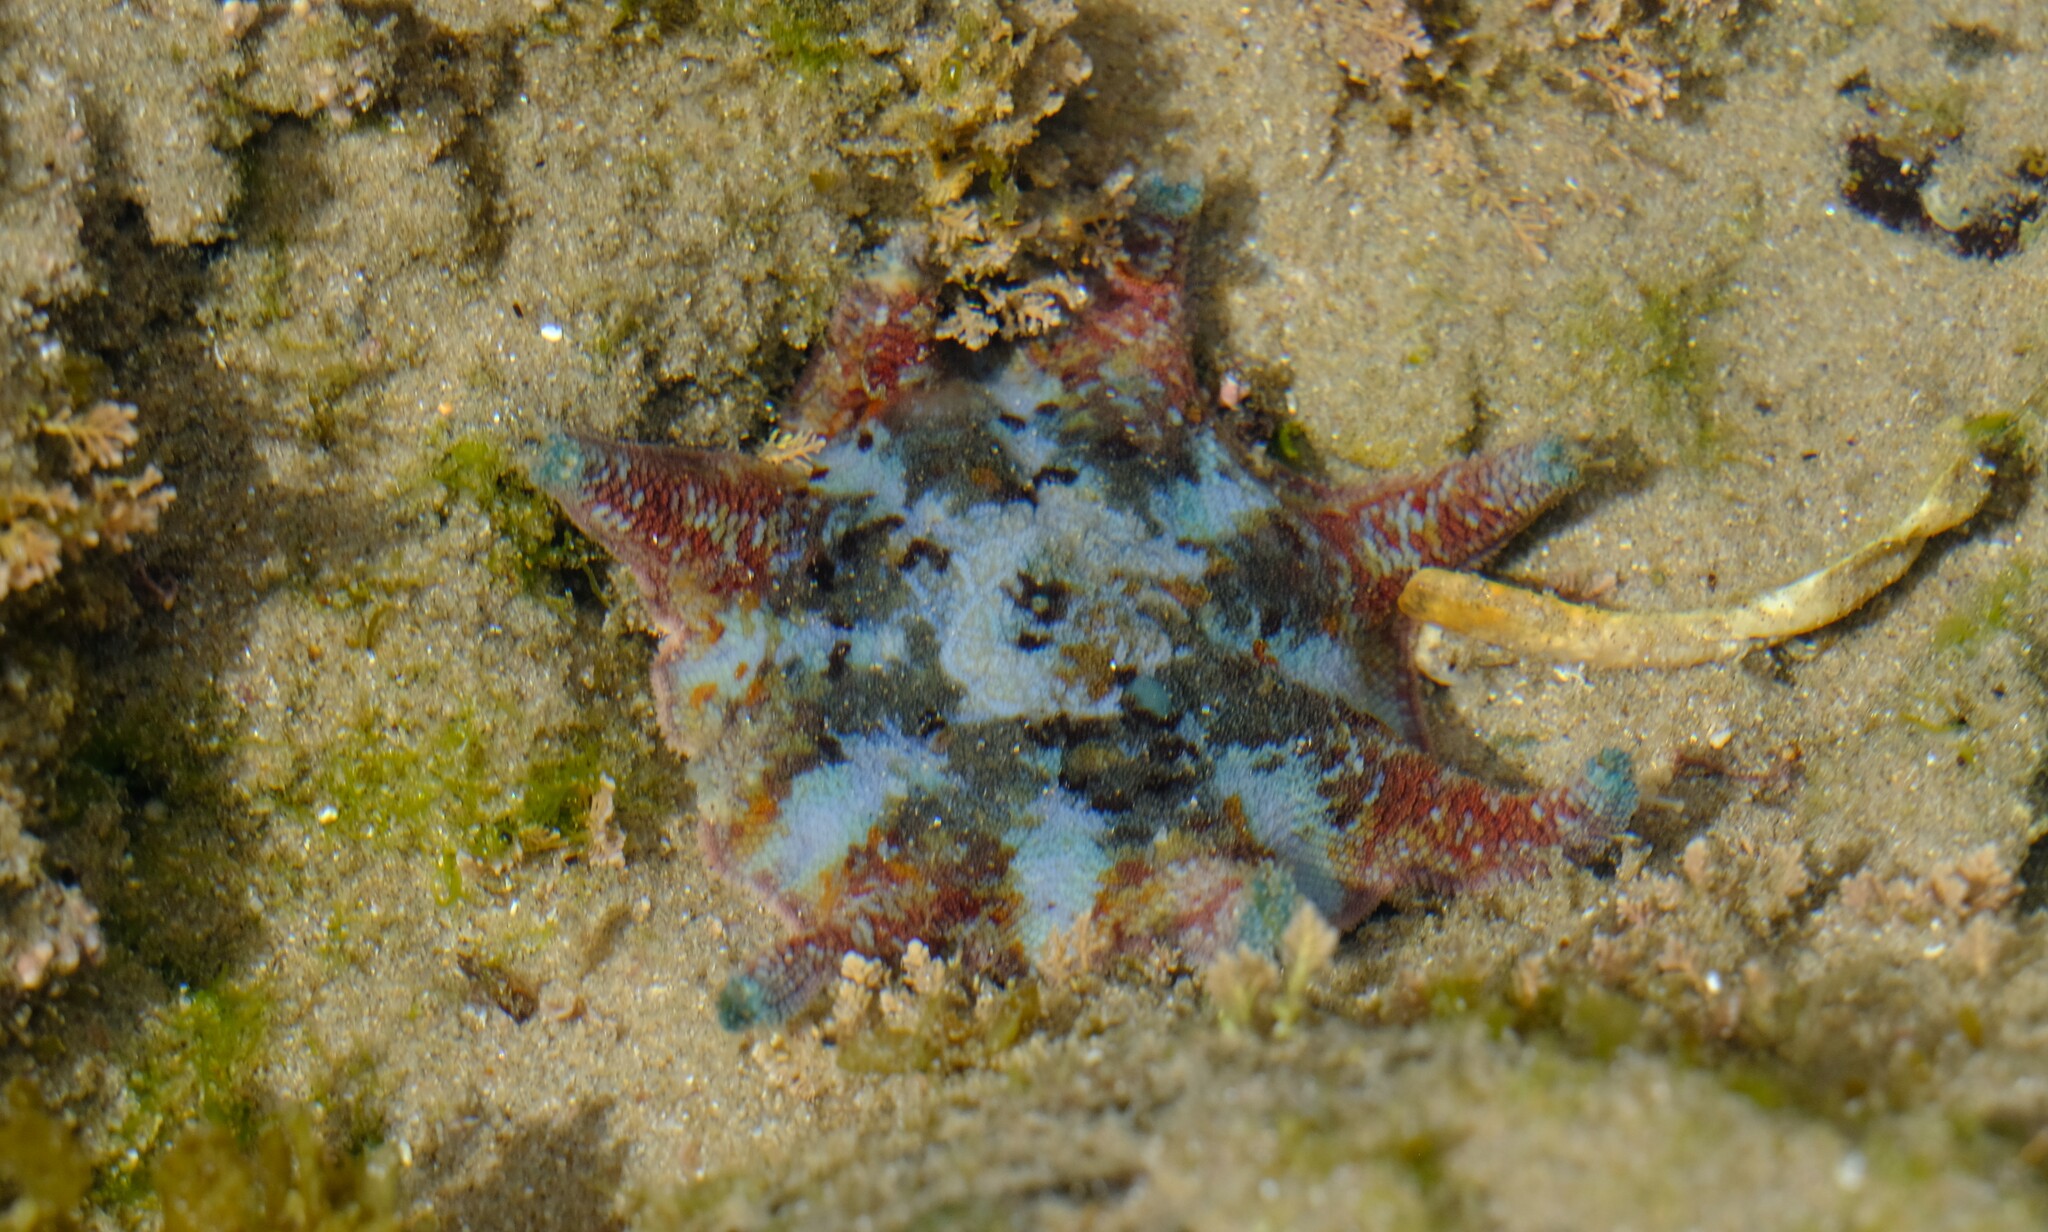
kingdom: Animalia
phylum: Echinodermata
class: Asteroidea
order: Valvatida
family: Asterinidae
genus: Meridiastra
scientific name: Meridiastra calcar
